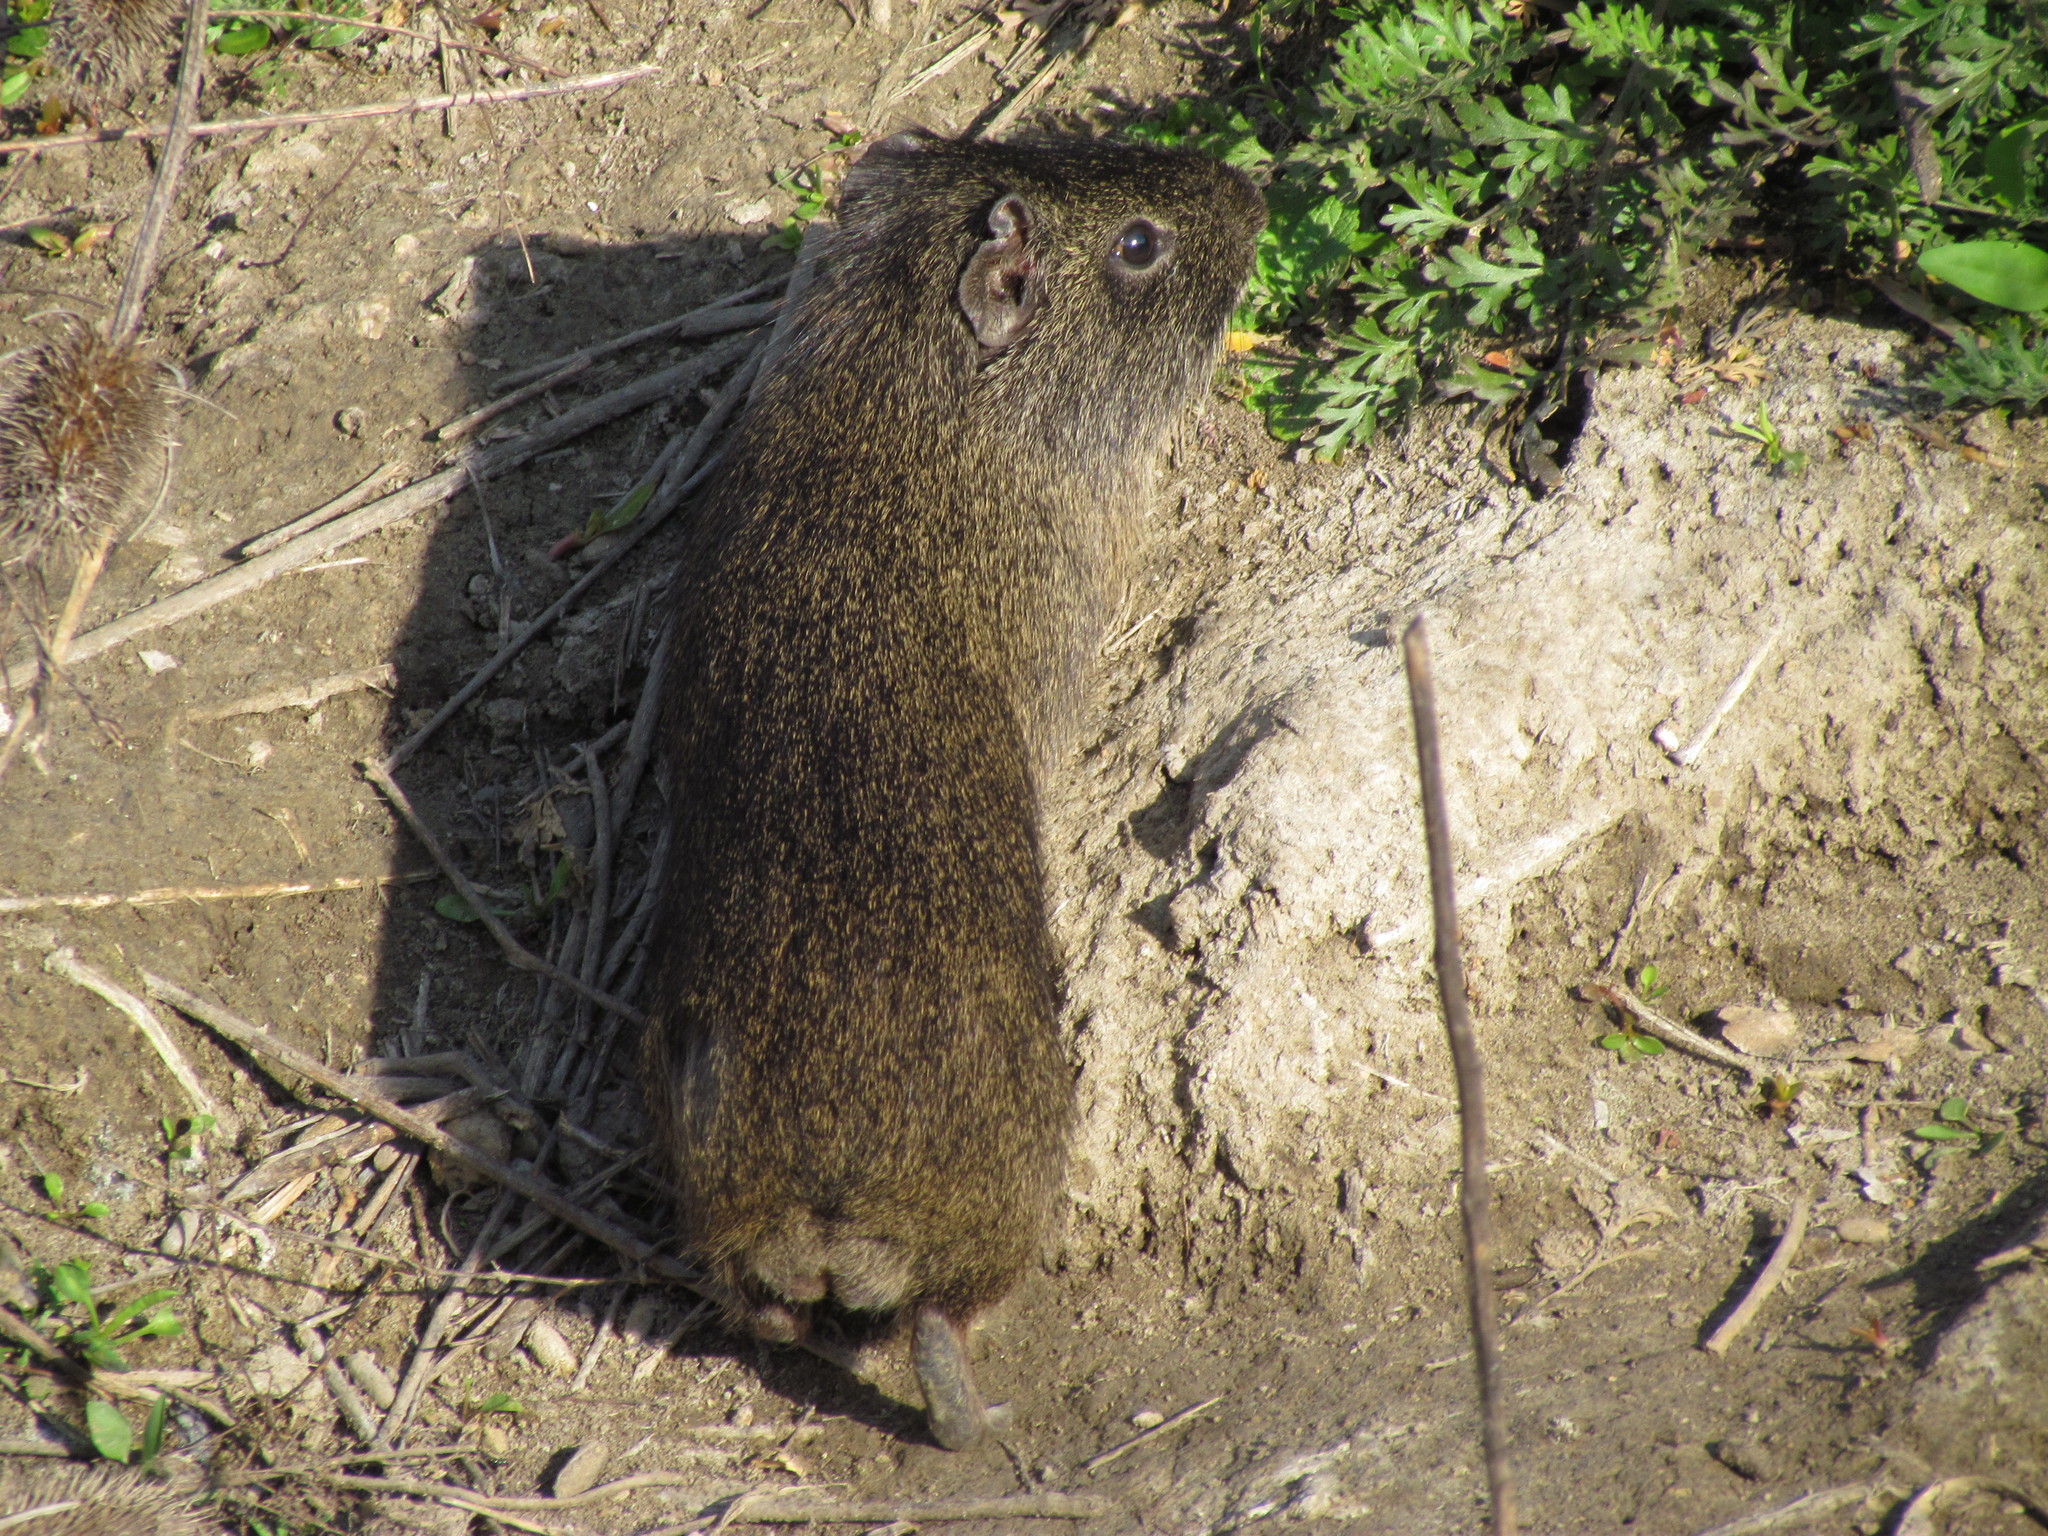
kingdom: Animalia
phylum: Chordata
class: Mammalia
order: Rodentia
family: Caviidae
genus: Cavia
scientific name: Cavia aperea
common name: Brazilian guinea pig
